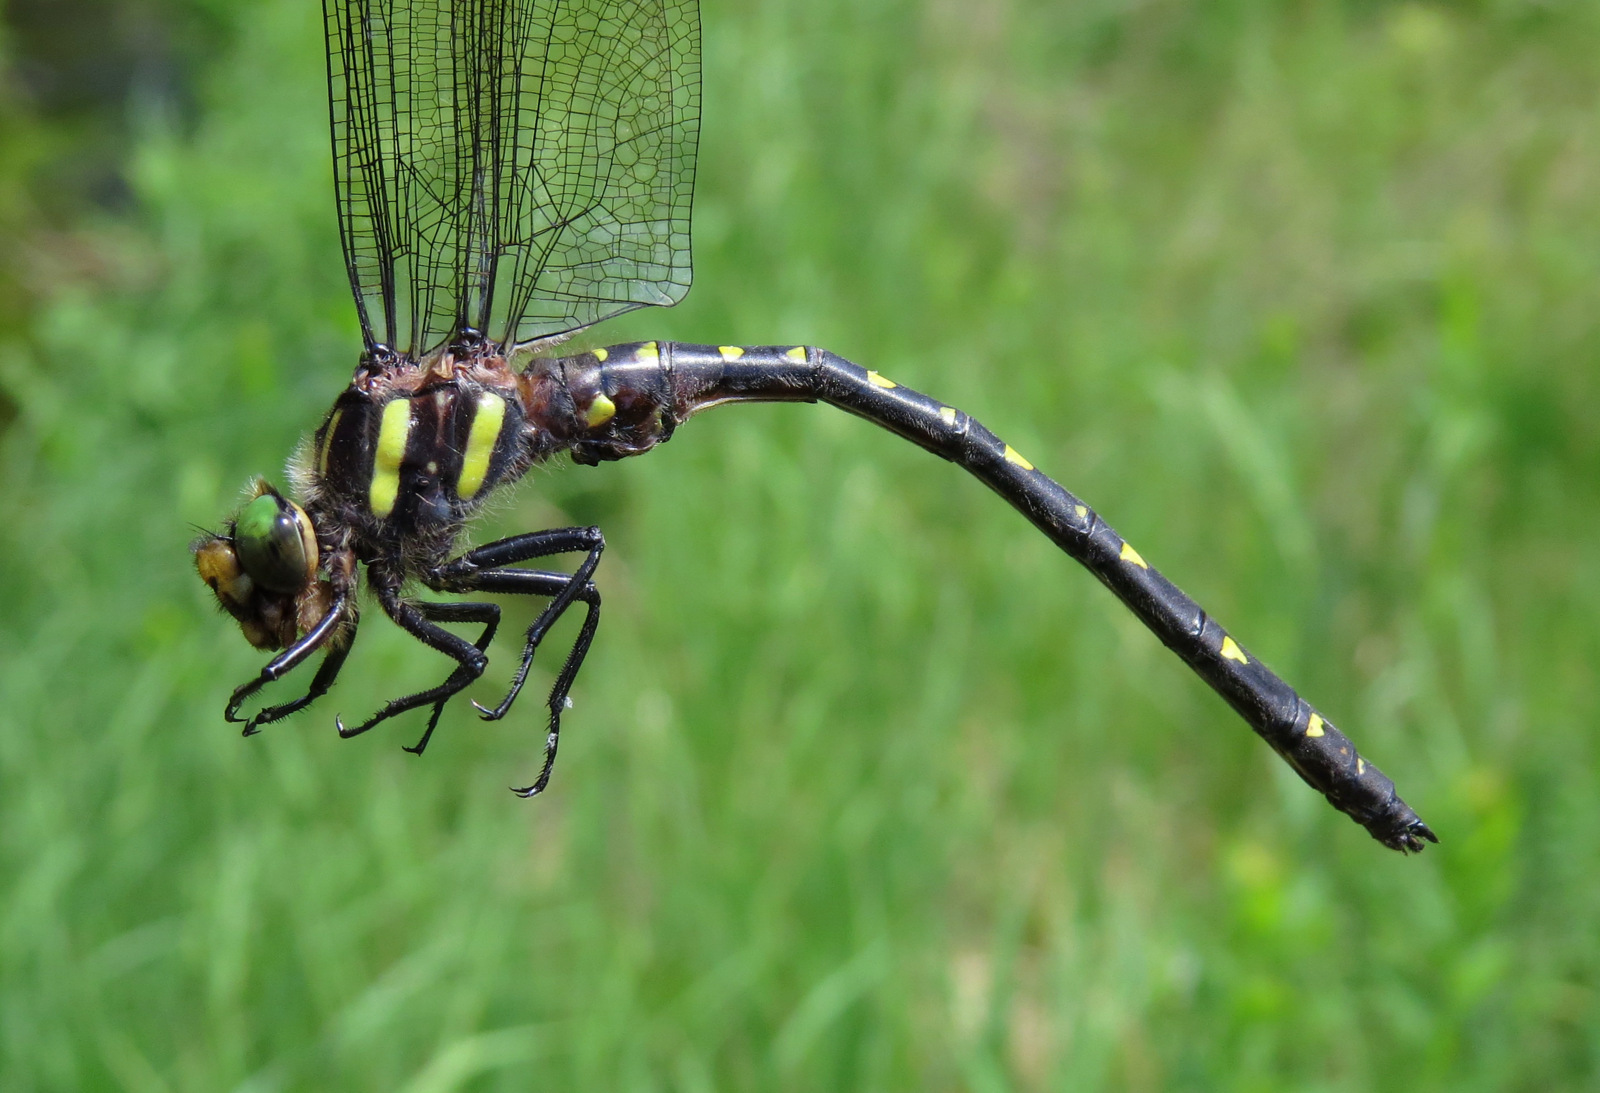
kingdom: Animalia
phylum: Arthropoda
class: Insecta
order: Odonata
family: Cordulegastridae
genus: Cordulegaster
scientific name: Cordulegaster maculata
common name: Twin-spotted spiketail
